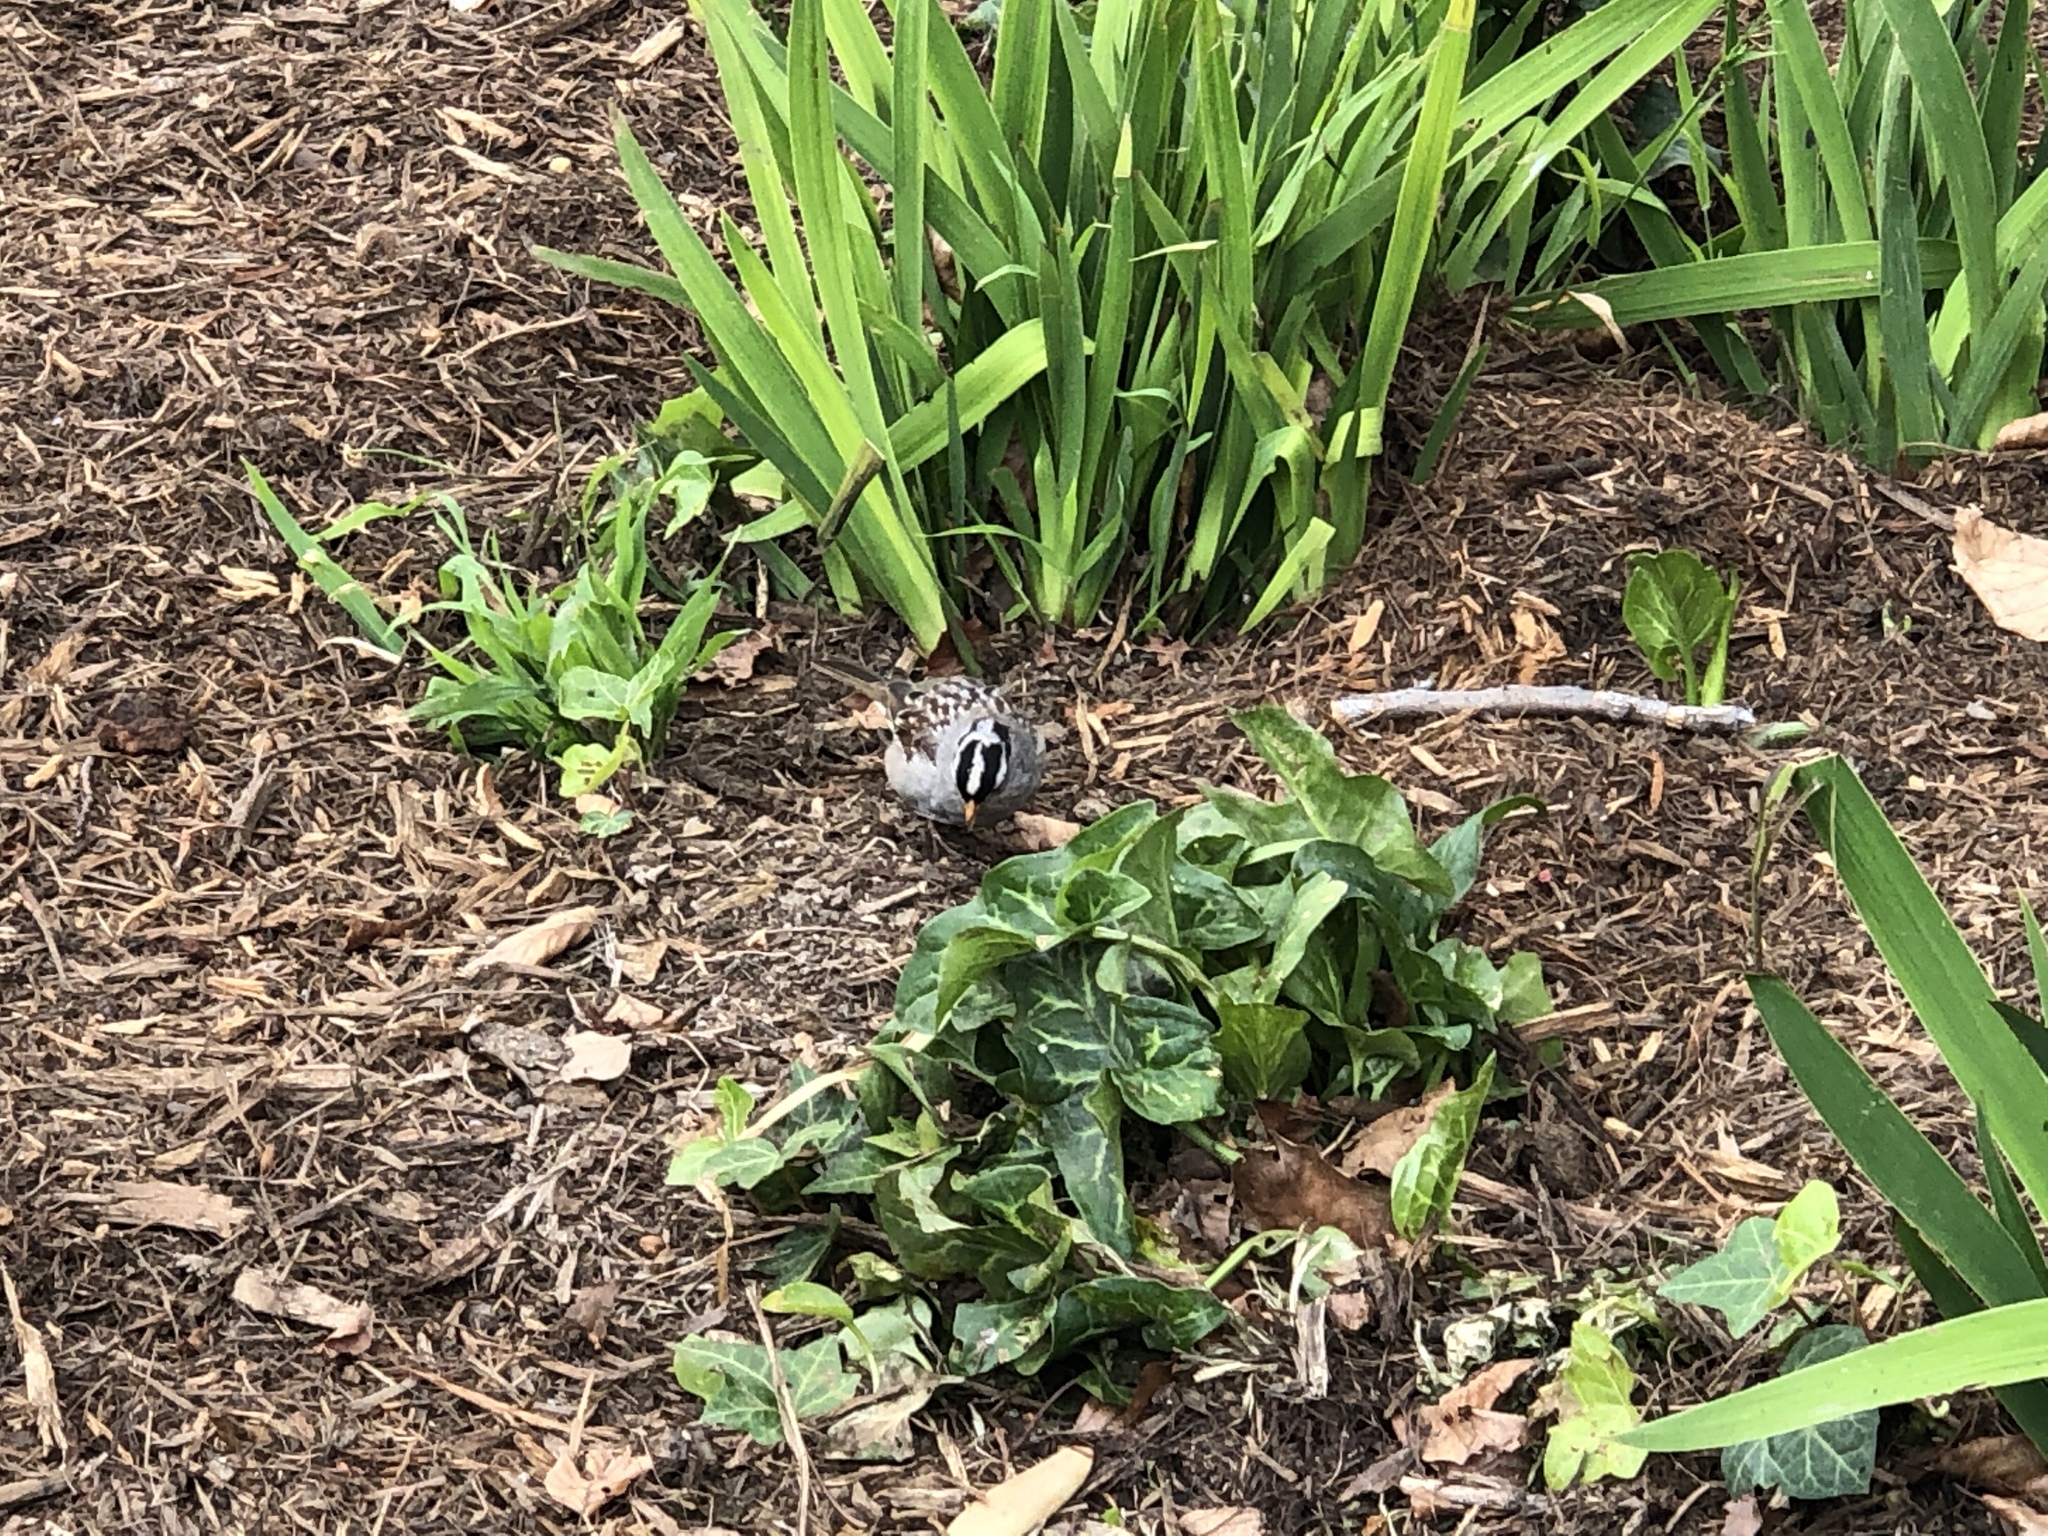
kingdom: Animalia
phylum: Chordata
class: Aves
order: Passeriformes
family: Passerellidae
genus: Zonotrichia
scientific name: Zonotrichia leucophrys
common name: White-crowned sparrow
